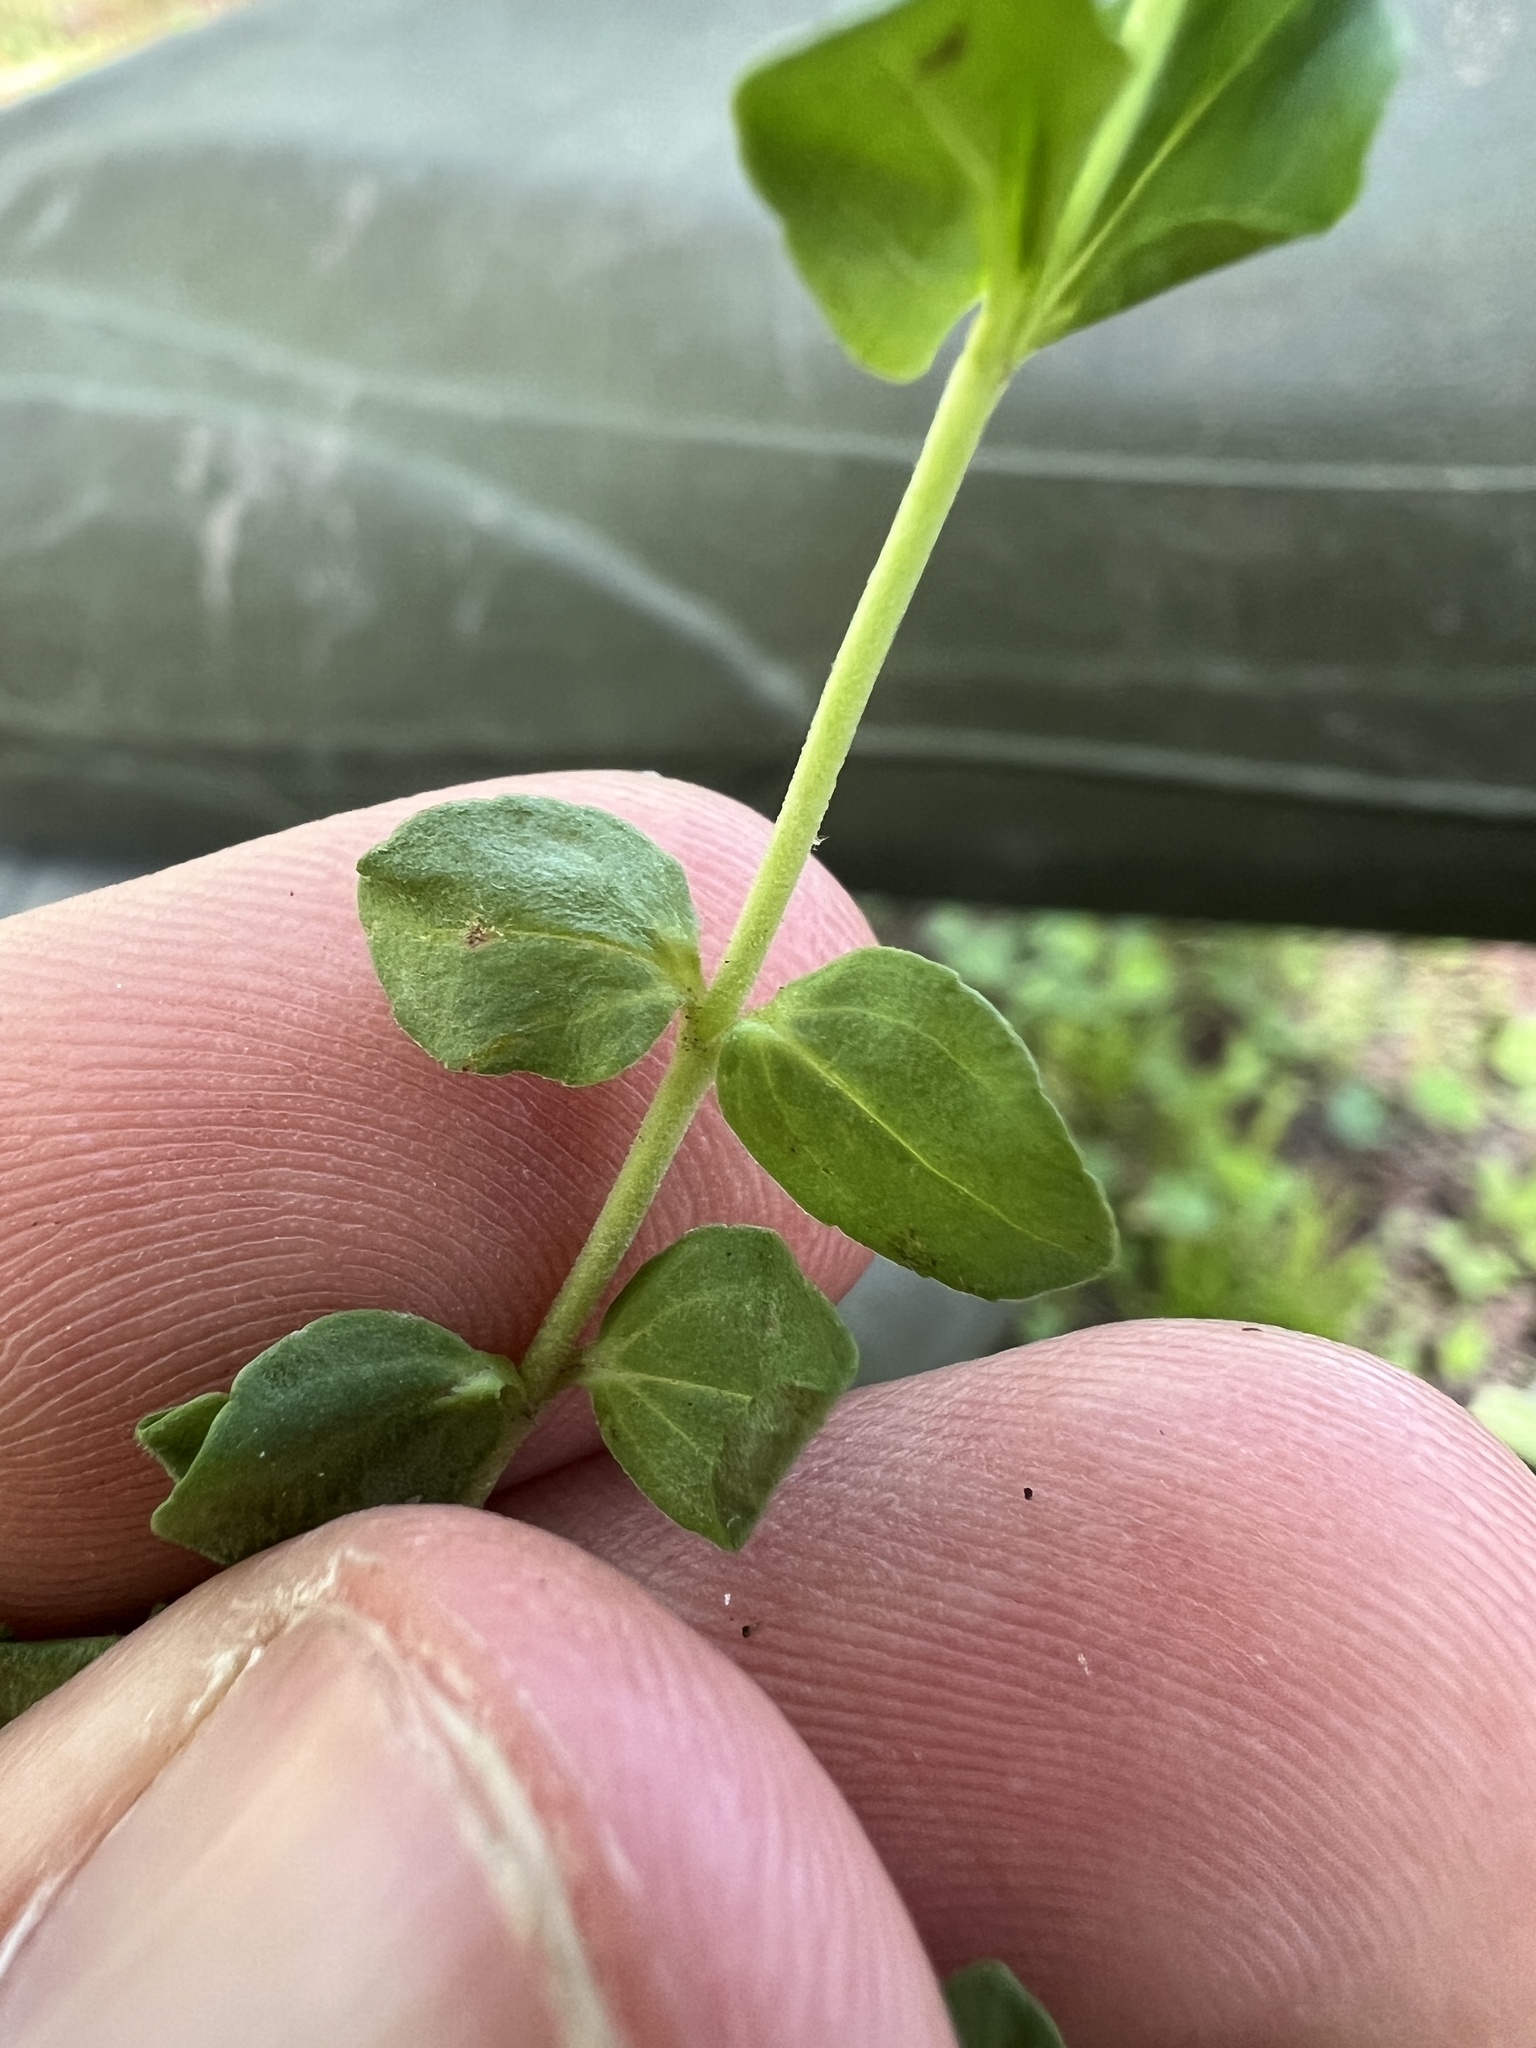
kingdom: Plantae
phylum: Tracheophyta
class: Magnoliopsida
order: Lamiales
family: Plantaginaceae
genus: Veronica
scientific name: Veronica serpyllifolia
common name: Thyme-leaved speedwell
